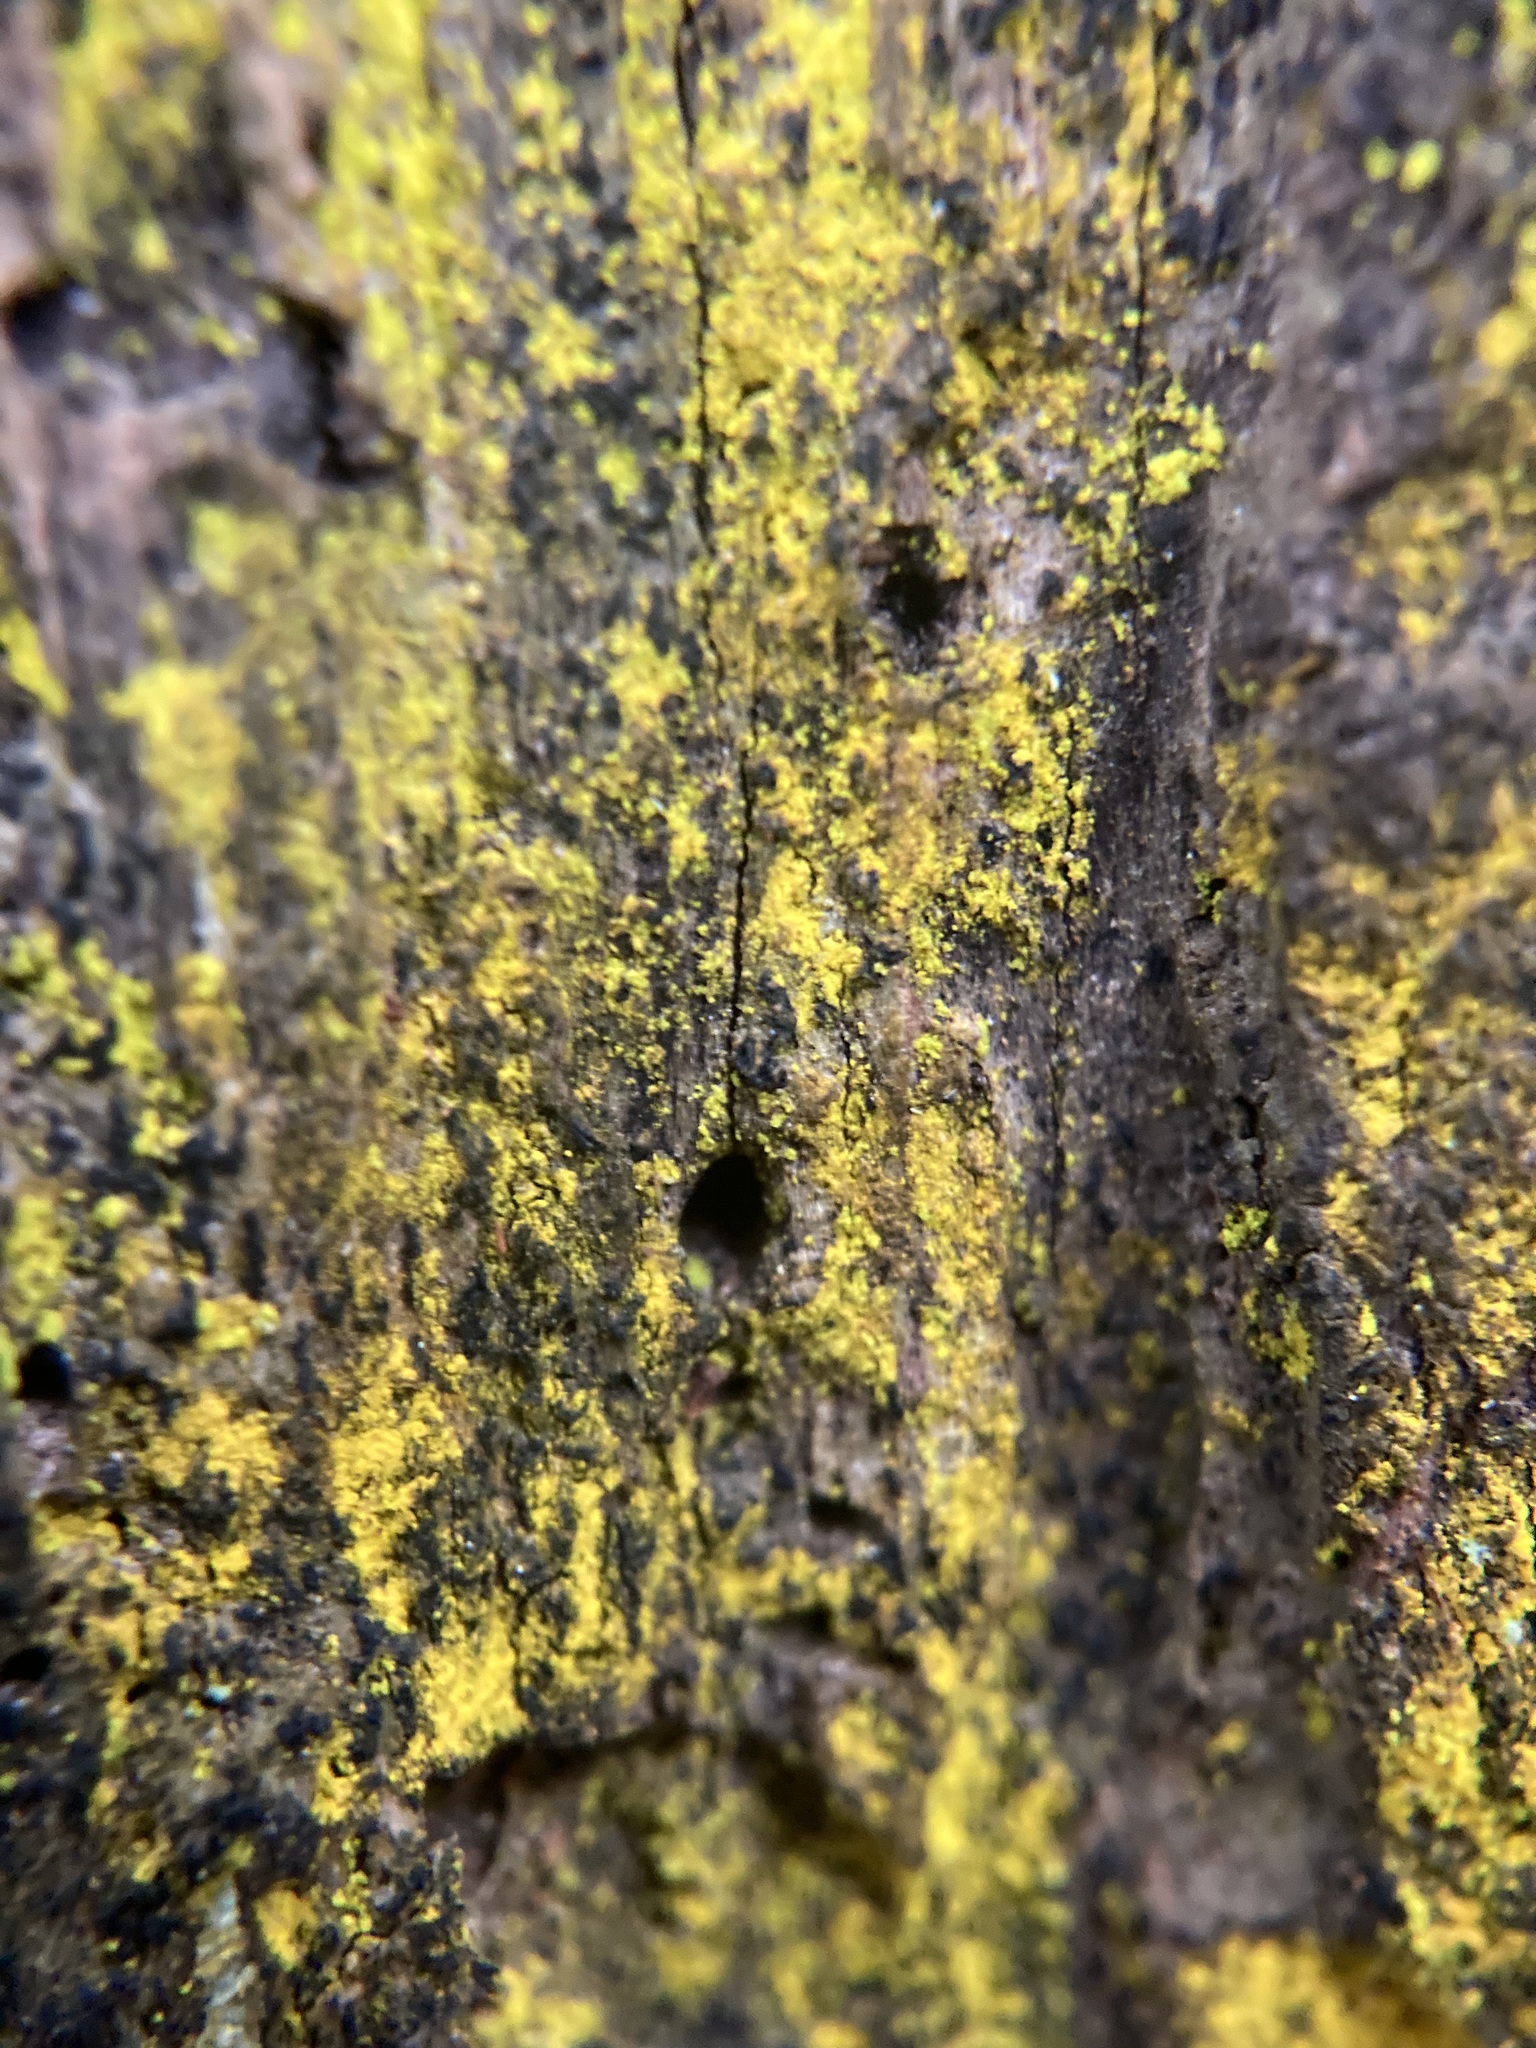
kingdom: Fungi
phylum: Ascomycota
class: Arthoniomycetes
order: Arthoniales
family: Chrysotrichaceae
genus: Chrysothrix
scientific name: Chrysothrix candelaris
